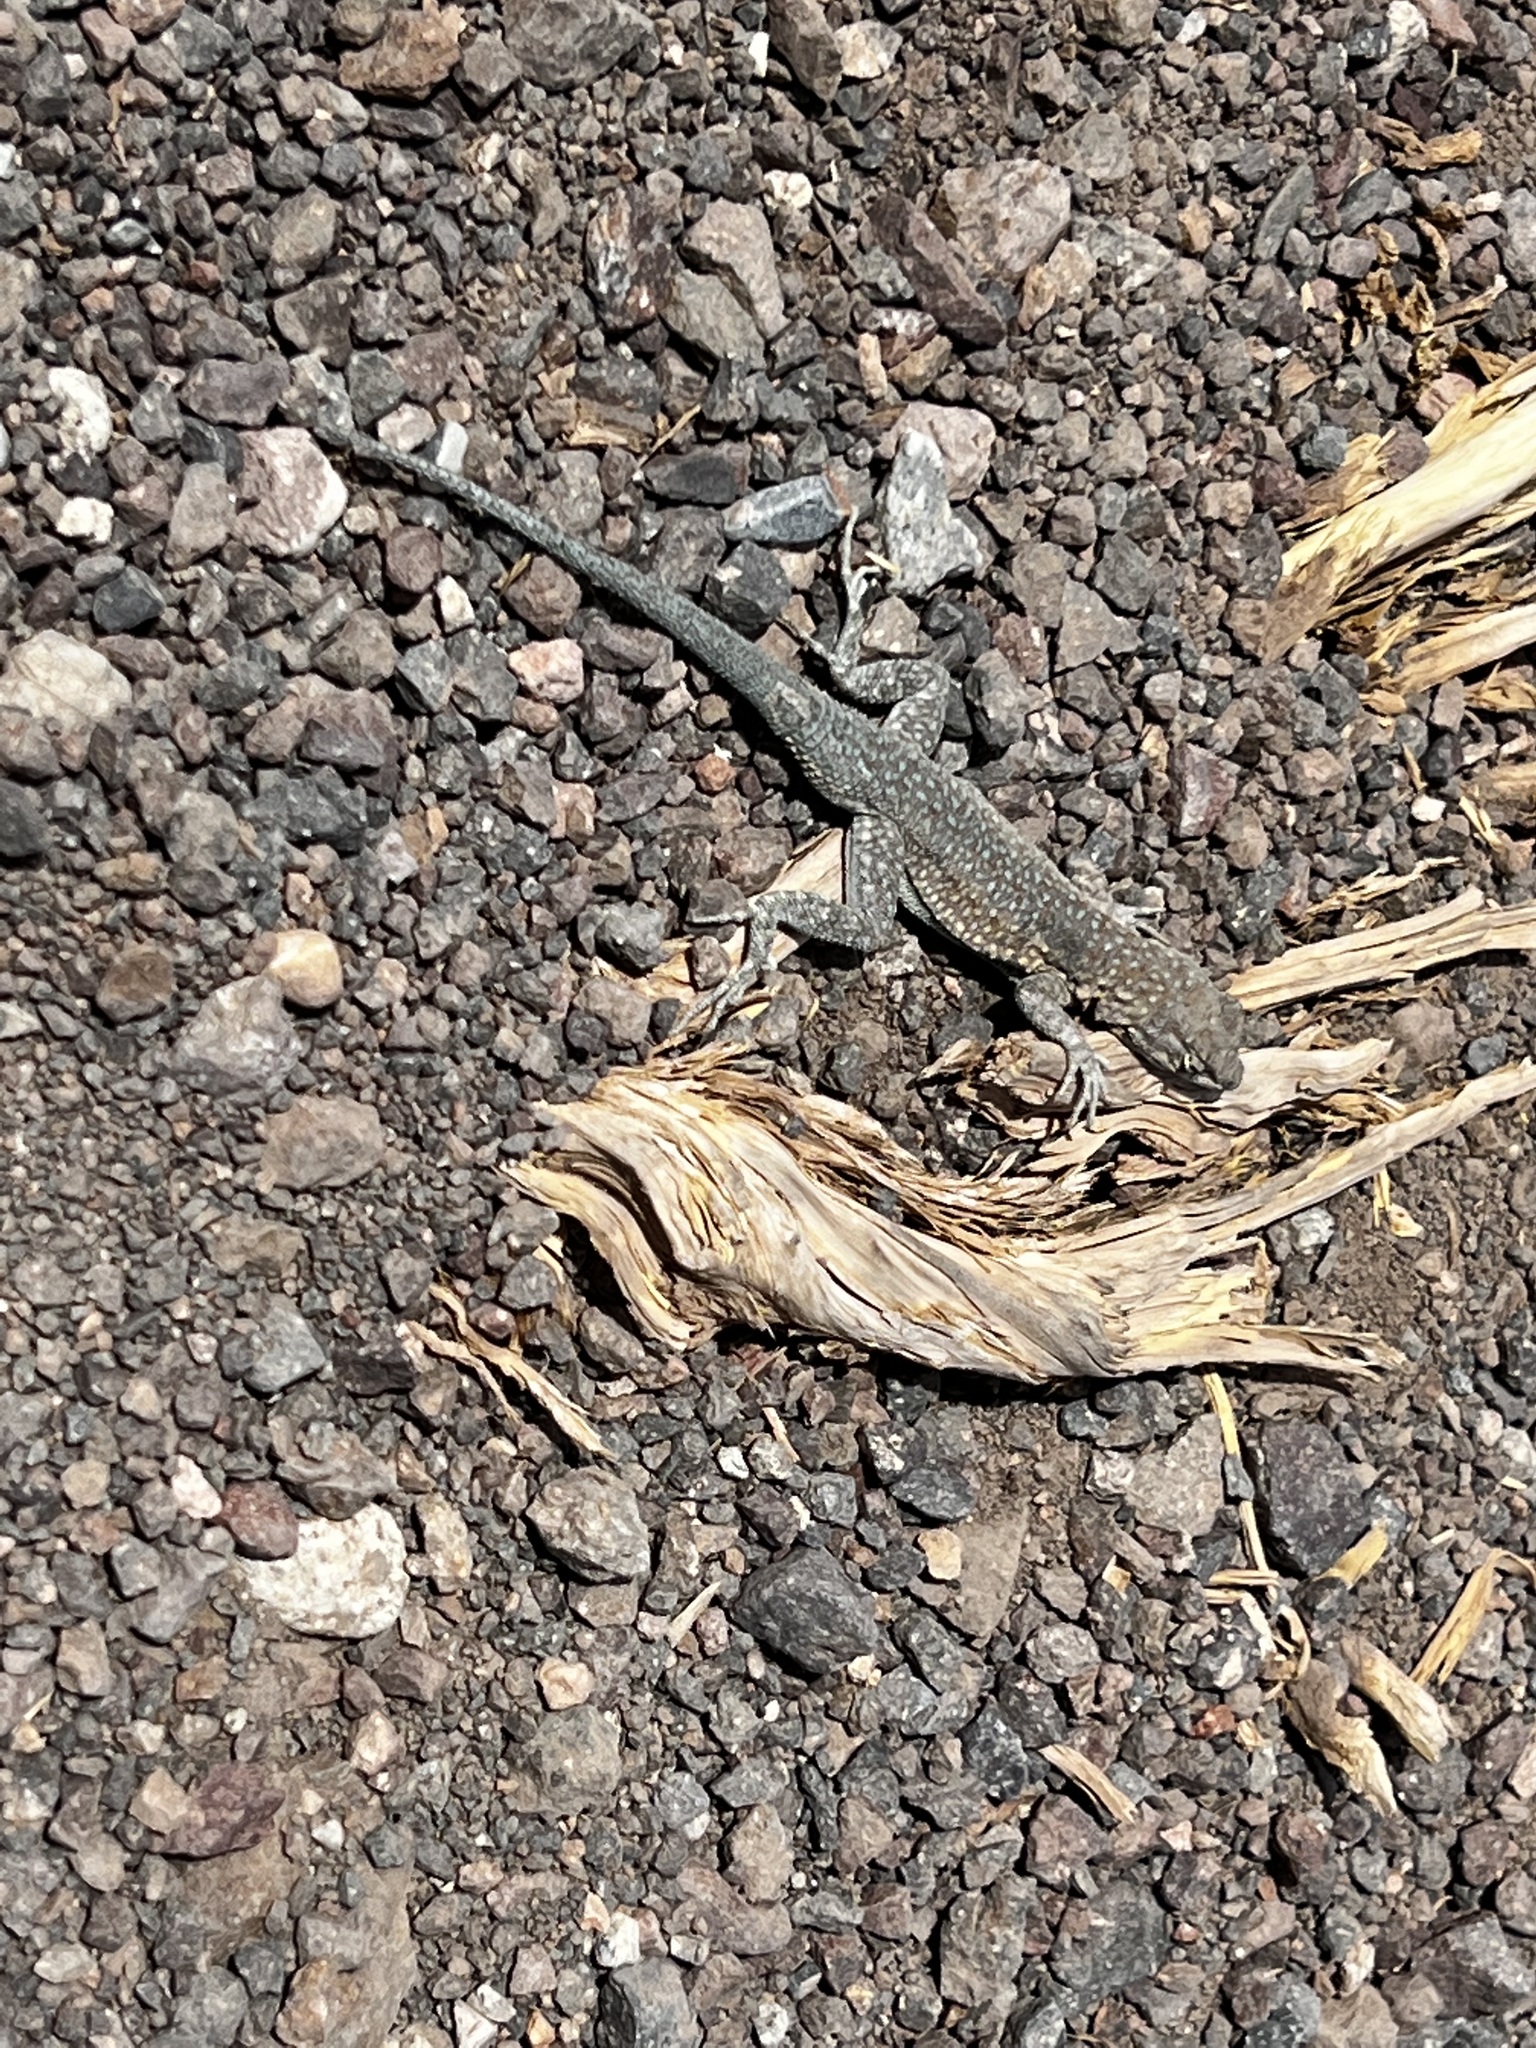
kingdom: Animalia
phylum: Chordata
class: Squamata
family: Phrynosomatidae
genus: Uta
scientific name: Uta stansburiana
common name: Side-blotched lizard
